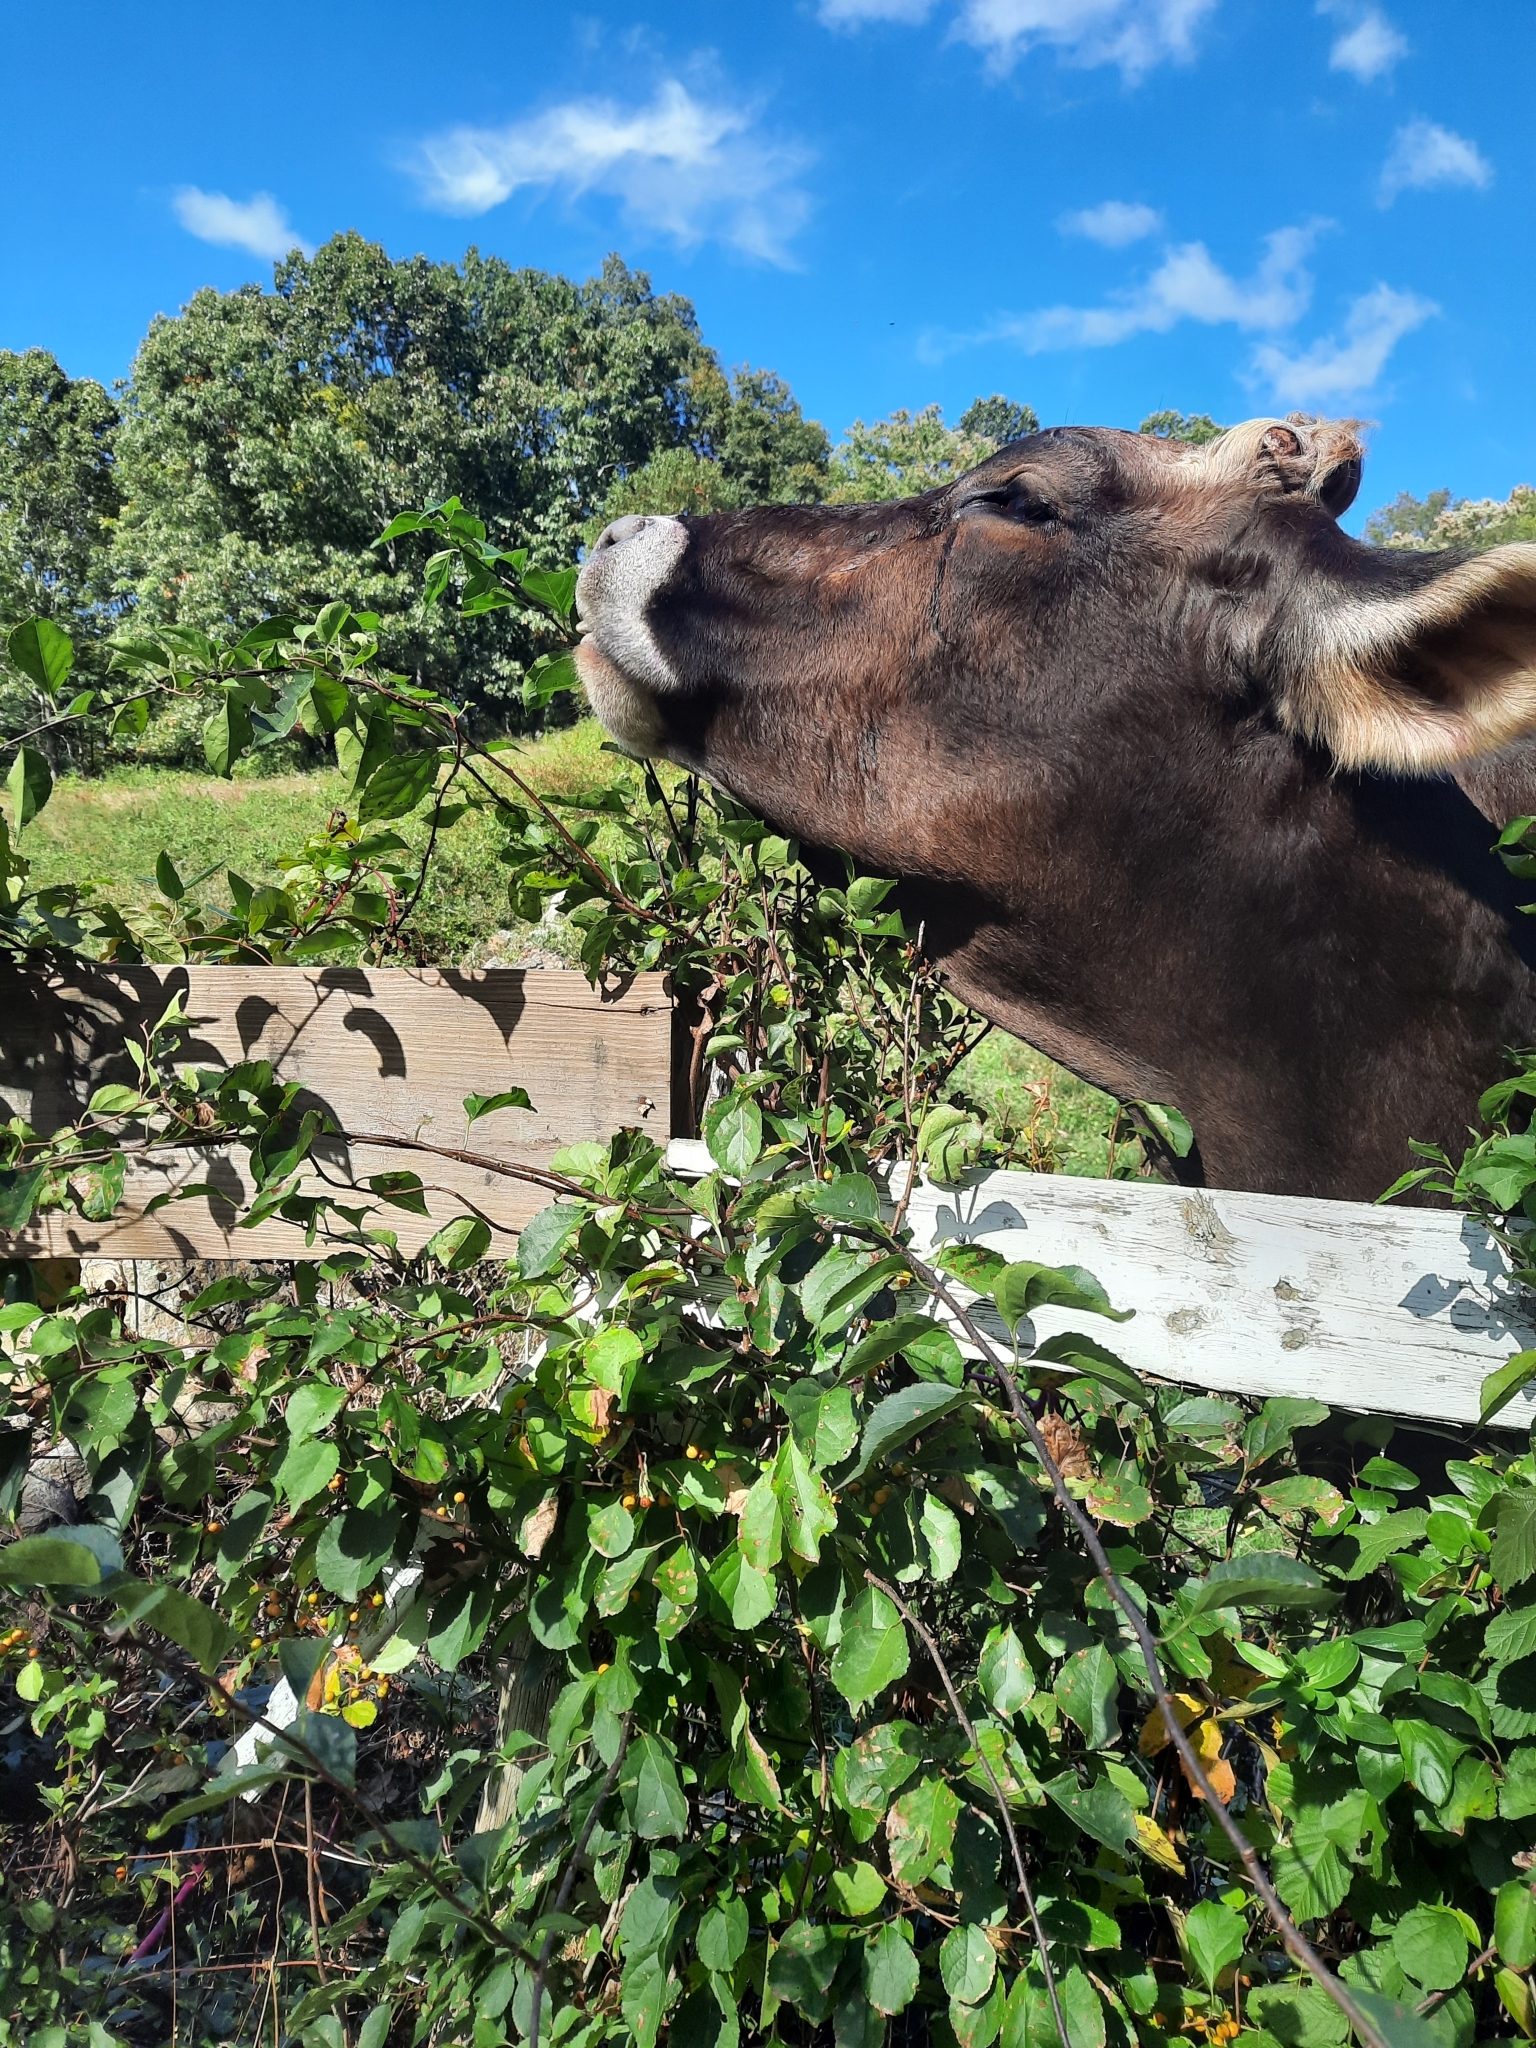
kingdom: Plantae
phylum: Tracheophyta
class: Magnoliopsida
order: Celastrales
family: Celastraceae
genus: Celastrus
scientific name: Celastrus orbiculatus
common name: Oriental bittersweet
